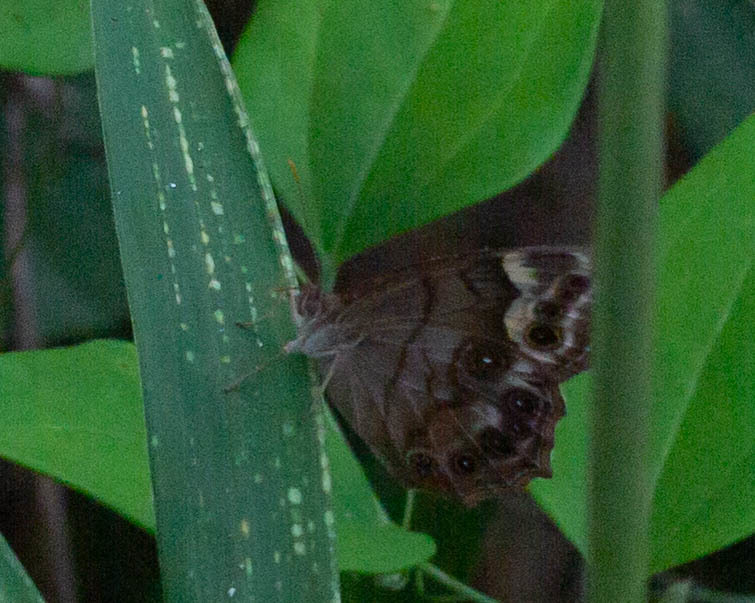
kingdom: Animalia
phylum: Arthropoda
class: Insecta
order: Lepidoptera
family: Nymphalidae
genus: Enodia
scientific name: Enodia portlandia
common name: Southern pearly-eye
